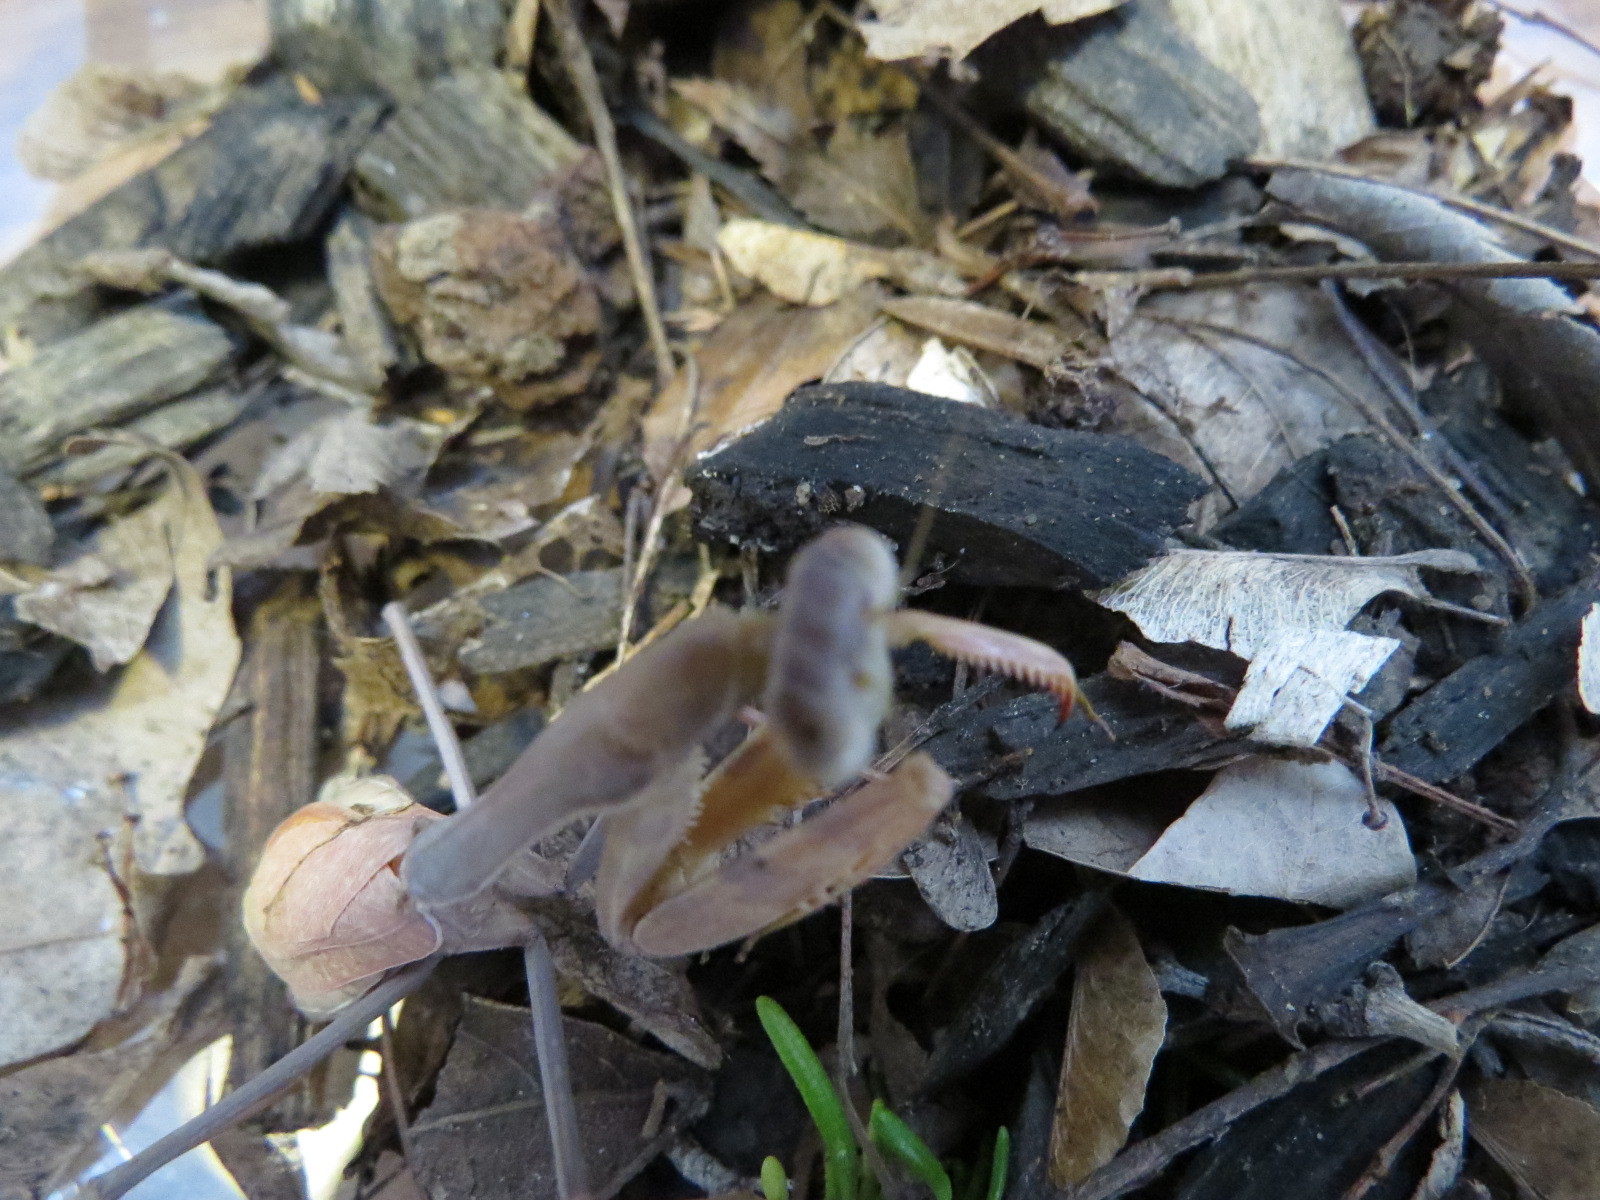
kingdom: Animalia
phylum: Arthropoda
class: Insecta
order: Mantodea
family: Mantidae
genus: Stagmomantis
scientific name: Stagmomantis limbata
